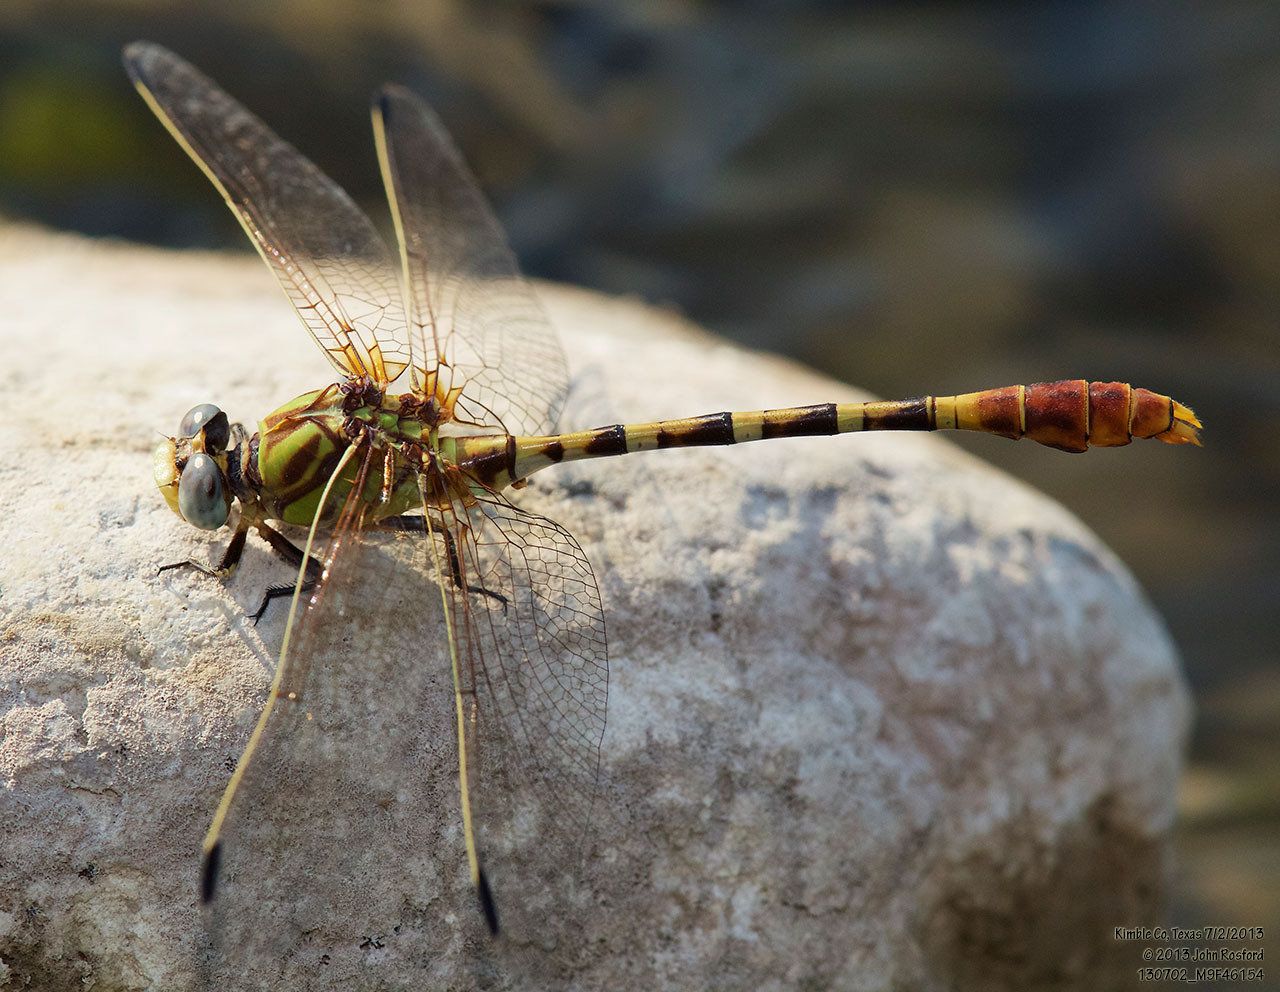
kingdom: Animalia
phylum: Arthropoda
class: Insecta
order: Odonata
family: Gomphidae
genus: Erpetogomphus
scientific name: Erpetogomphus designatus
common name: Eastern ringtail
